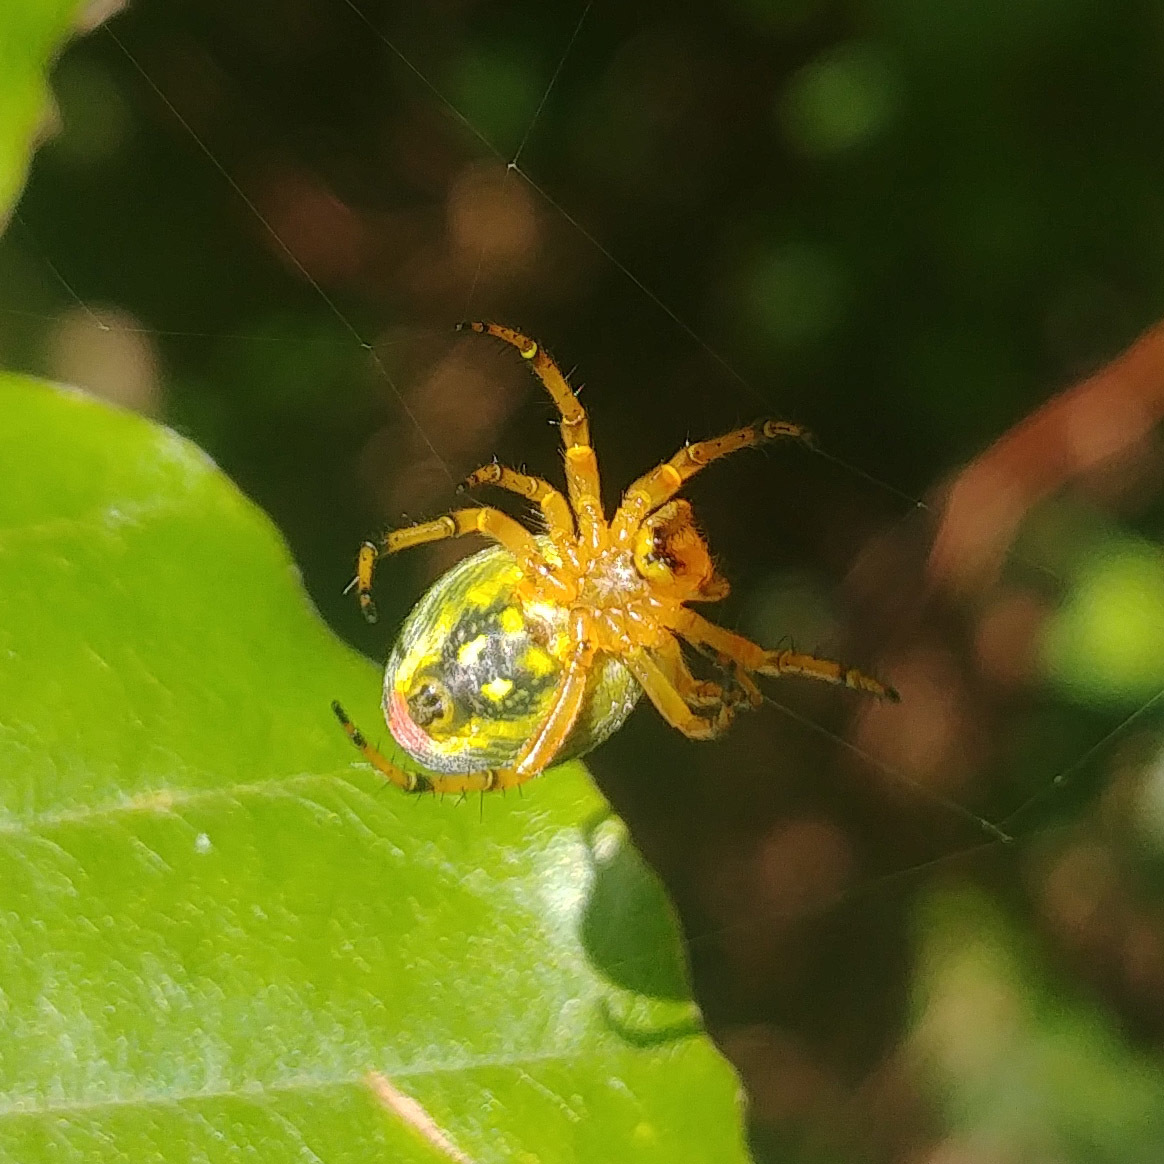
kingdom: Animalia
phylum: Arthropoda
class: Arachnida
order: Araneae
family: Araneidae
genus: Araniella
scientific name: Araniella alpica
